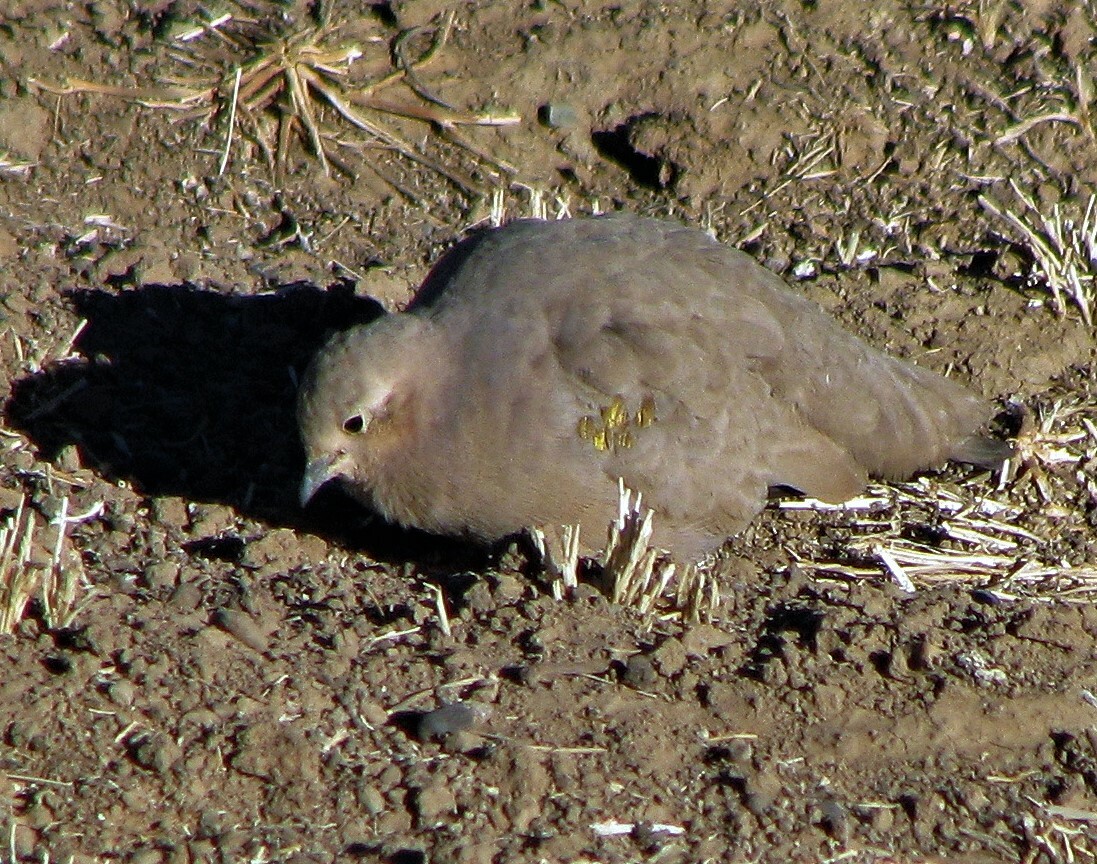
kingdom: Animalia
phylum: Chordata
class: Aves
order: Columbiformes
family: Columbidae
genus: Metriopelia
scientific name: Metriopelia aymara
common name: Golden-spotted ground dove
